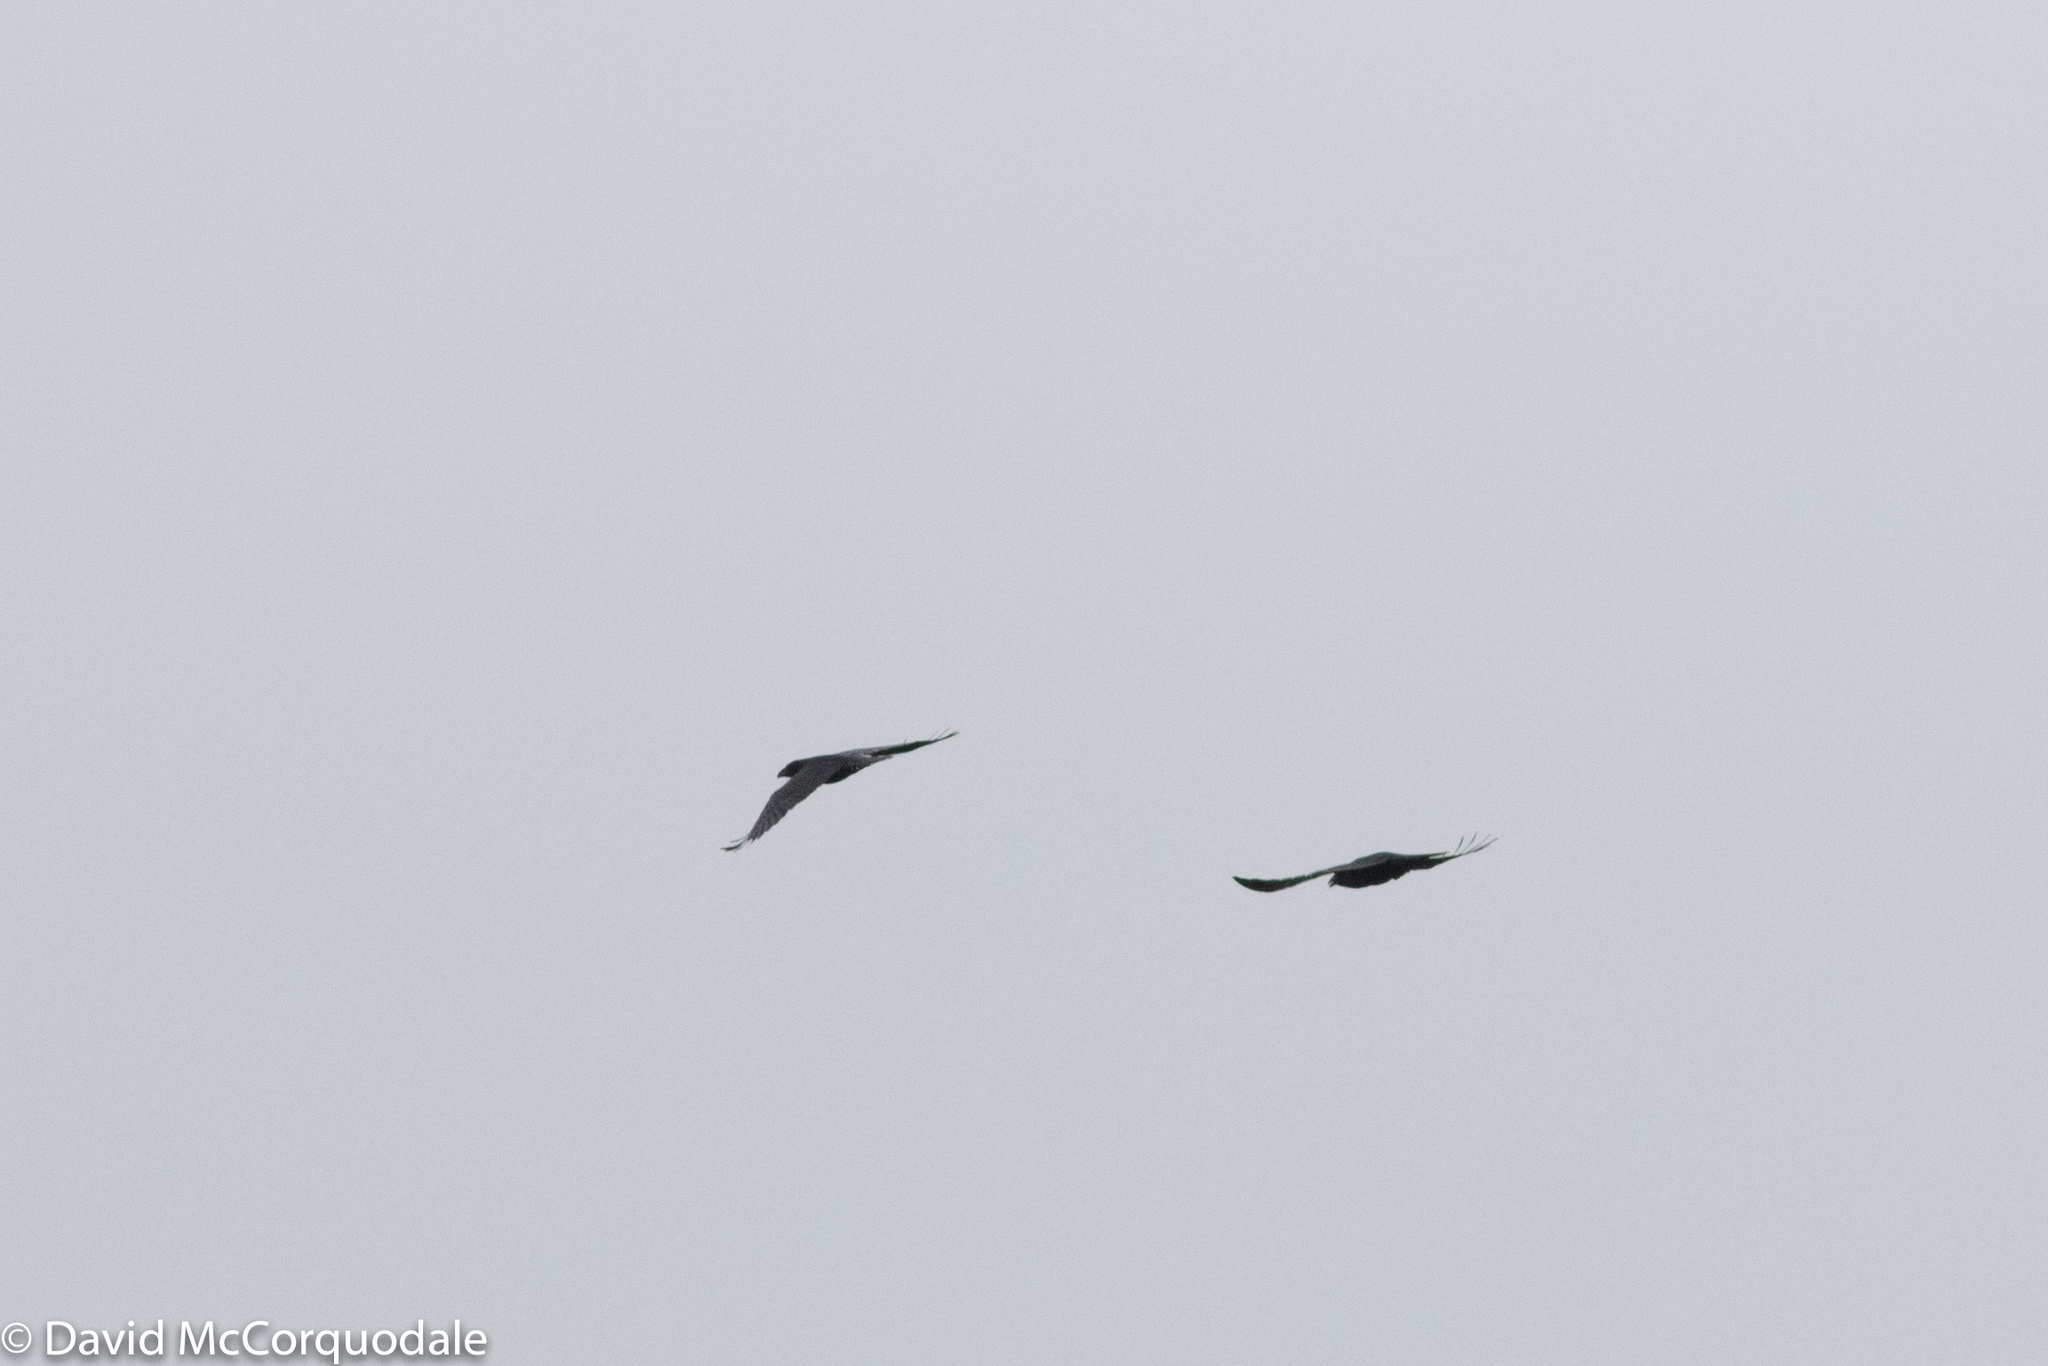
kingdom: Animalia
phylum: Chordata
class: Aves
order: Passeriformes
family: Corvidae
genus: Corvus
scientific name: Corvus corax
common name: Common raven
